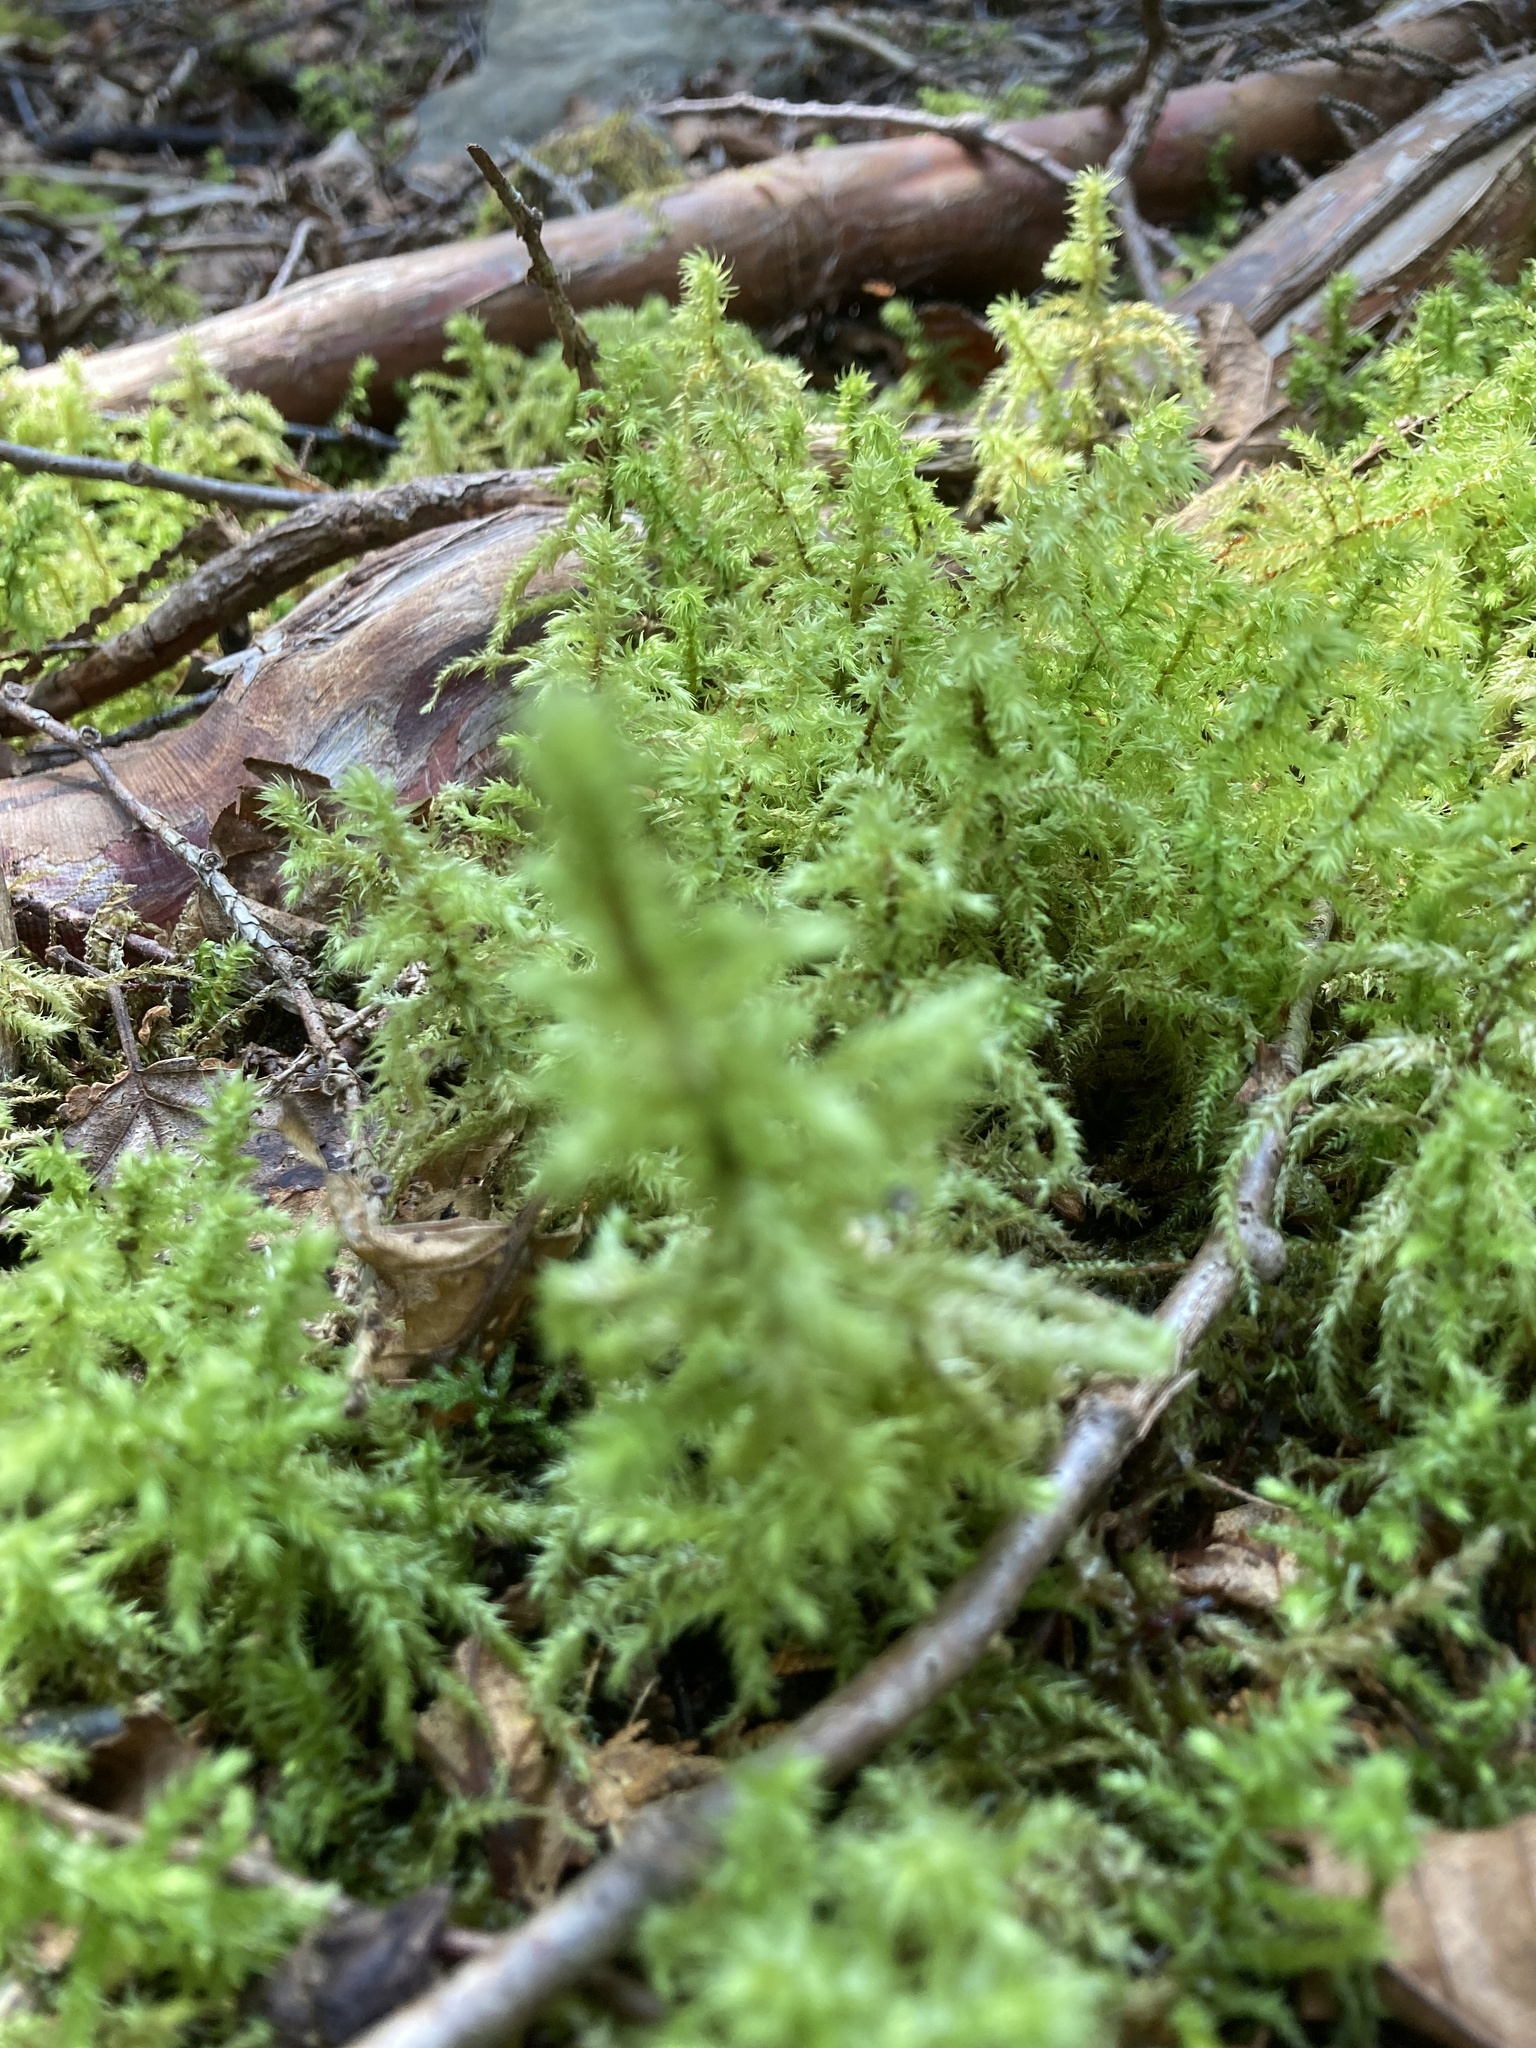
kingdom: Plantae
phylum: Bryophyta
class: Bryopsida
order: Hypnales
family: Hylocomiaceae
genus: Hylocomiadelphus
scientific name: Hylocomiadelphus triquetrus
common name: Rough goose neck moss
